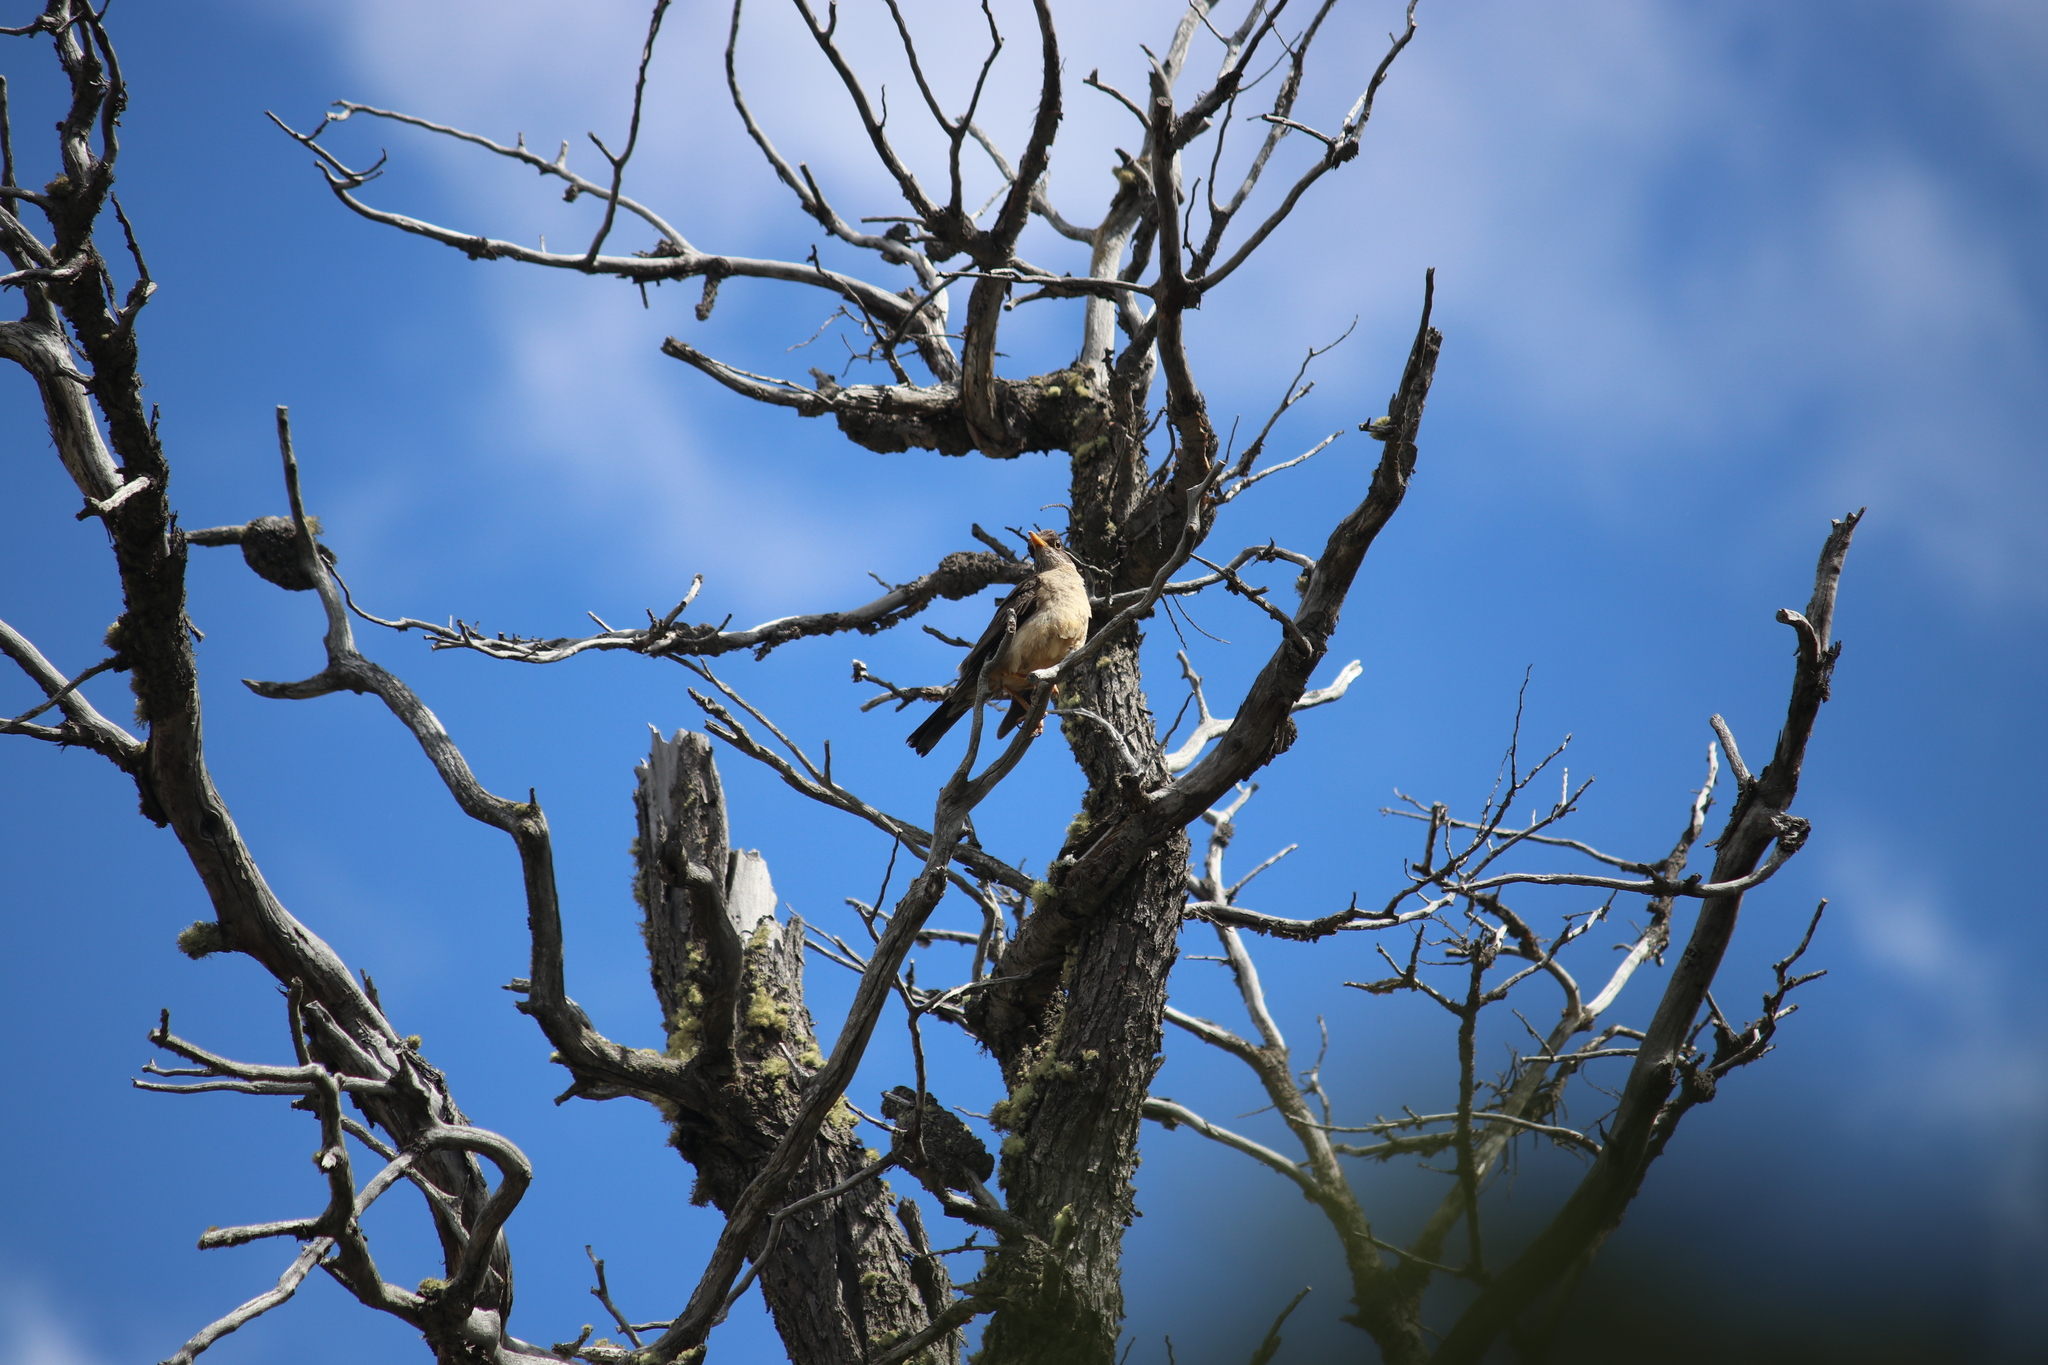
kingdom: Animalia
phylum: Chordata
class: Aves
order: Passeriformes
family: Turdidae
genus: Turdus
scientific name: Turdus falcklandii
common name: Austral thrush
